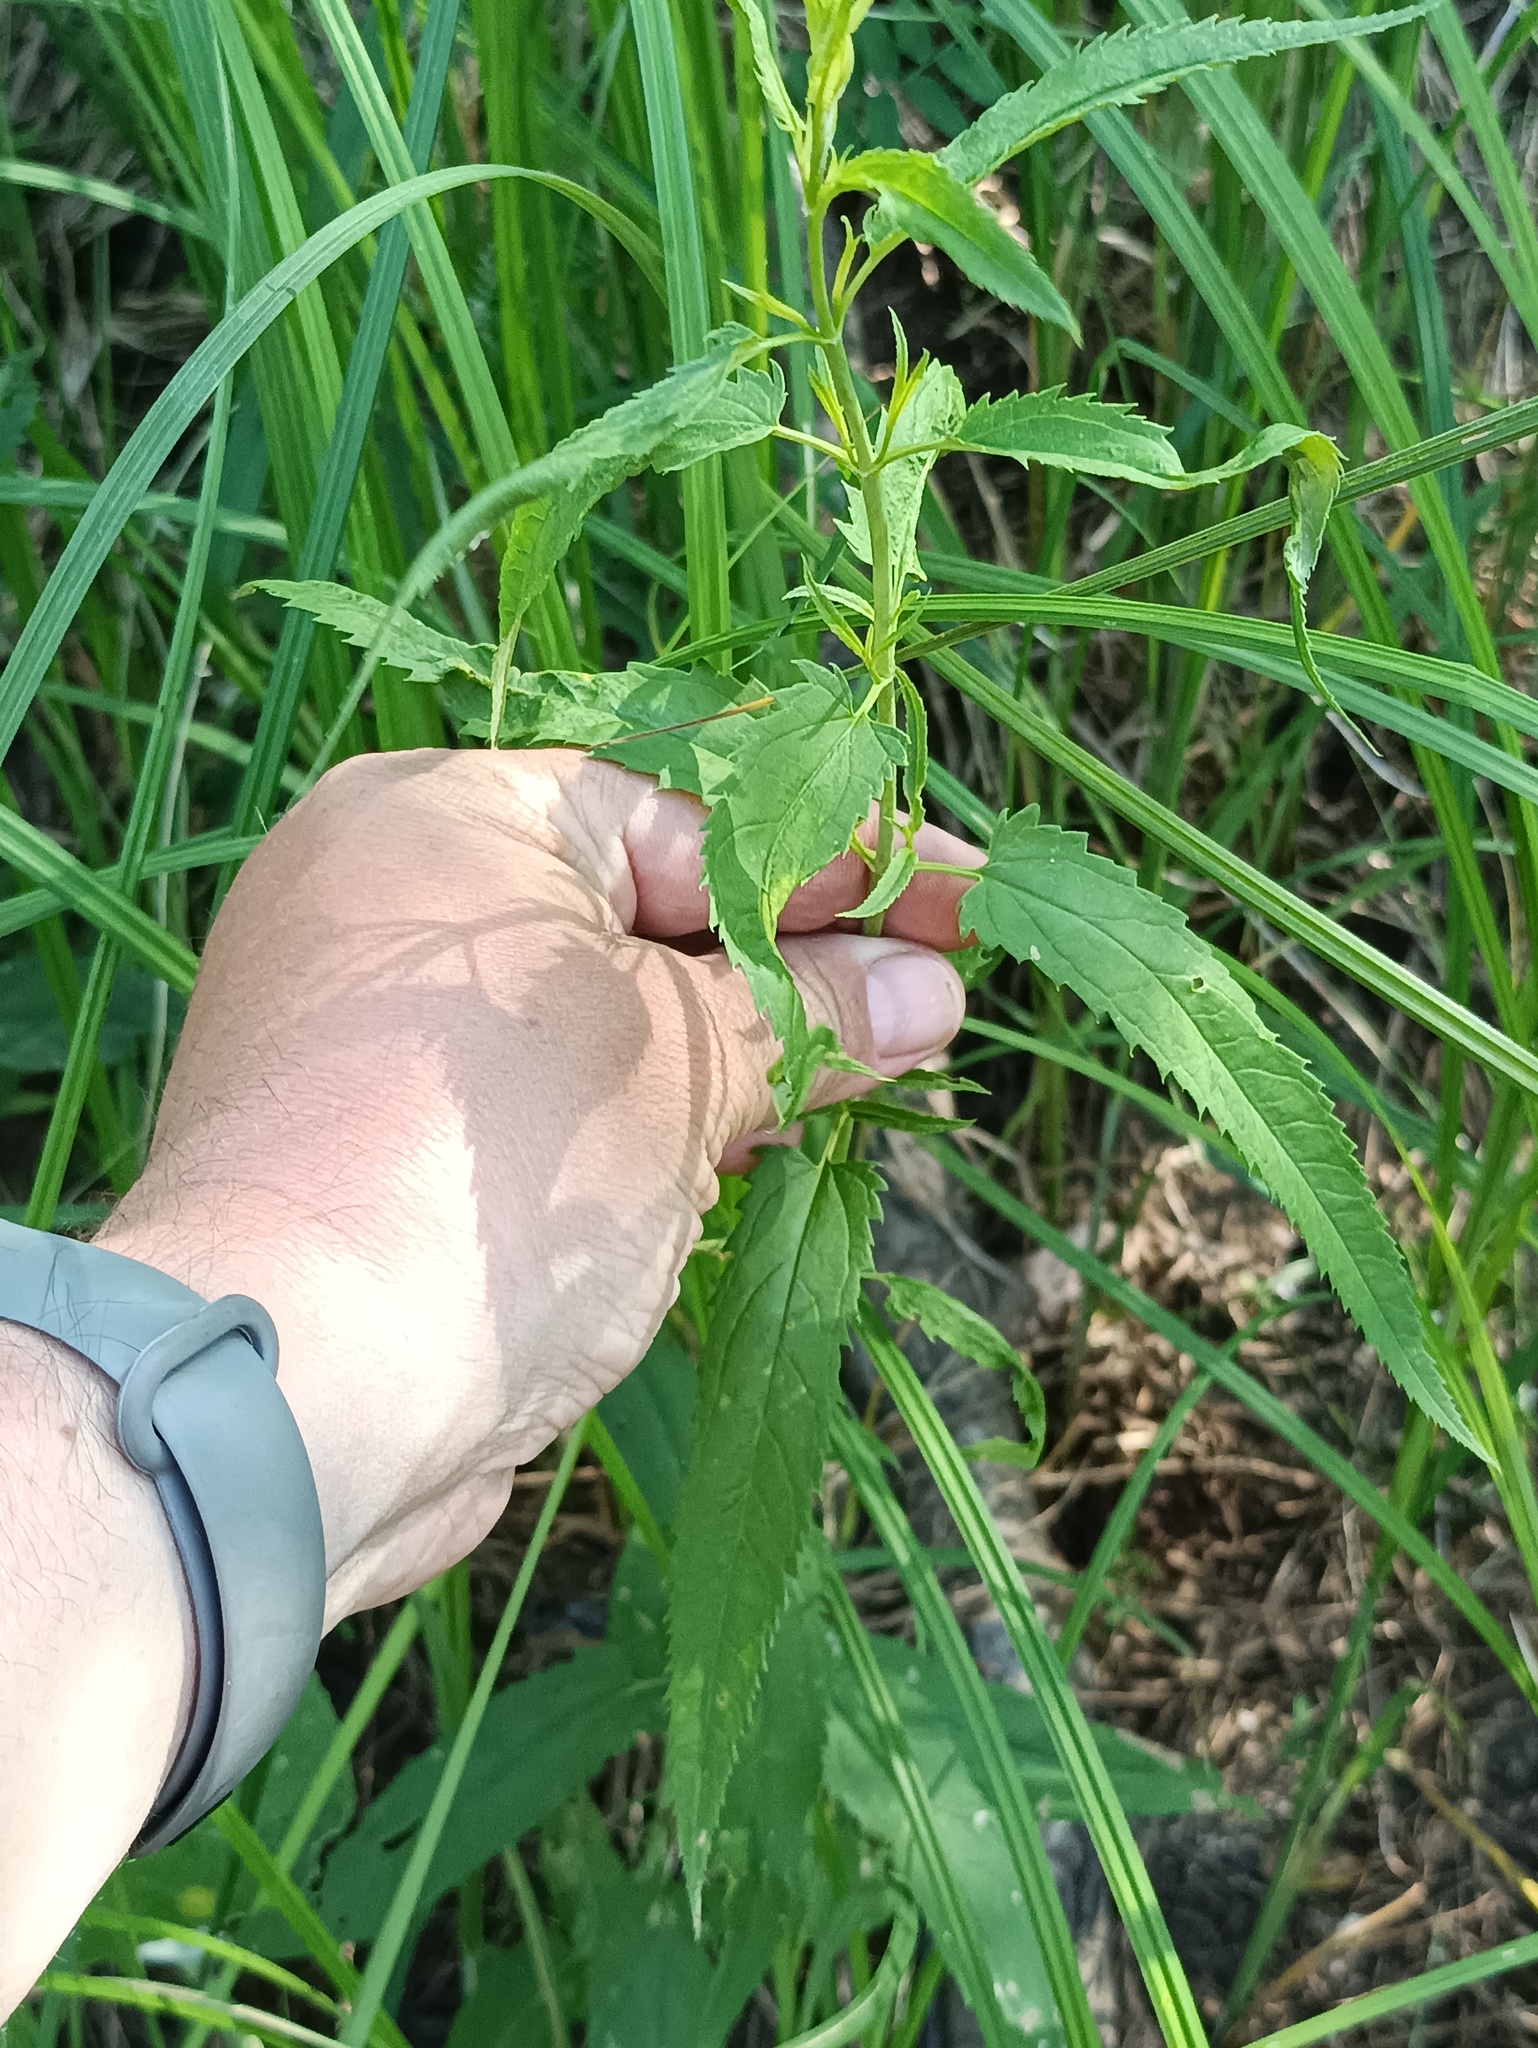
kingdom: Plantae
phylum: Tracheophyta
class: Magnoliopsida
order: Lamiales
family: Plantaginaceae
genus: Veronica
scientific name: Veronica longifolia
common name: Garden speedwell
